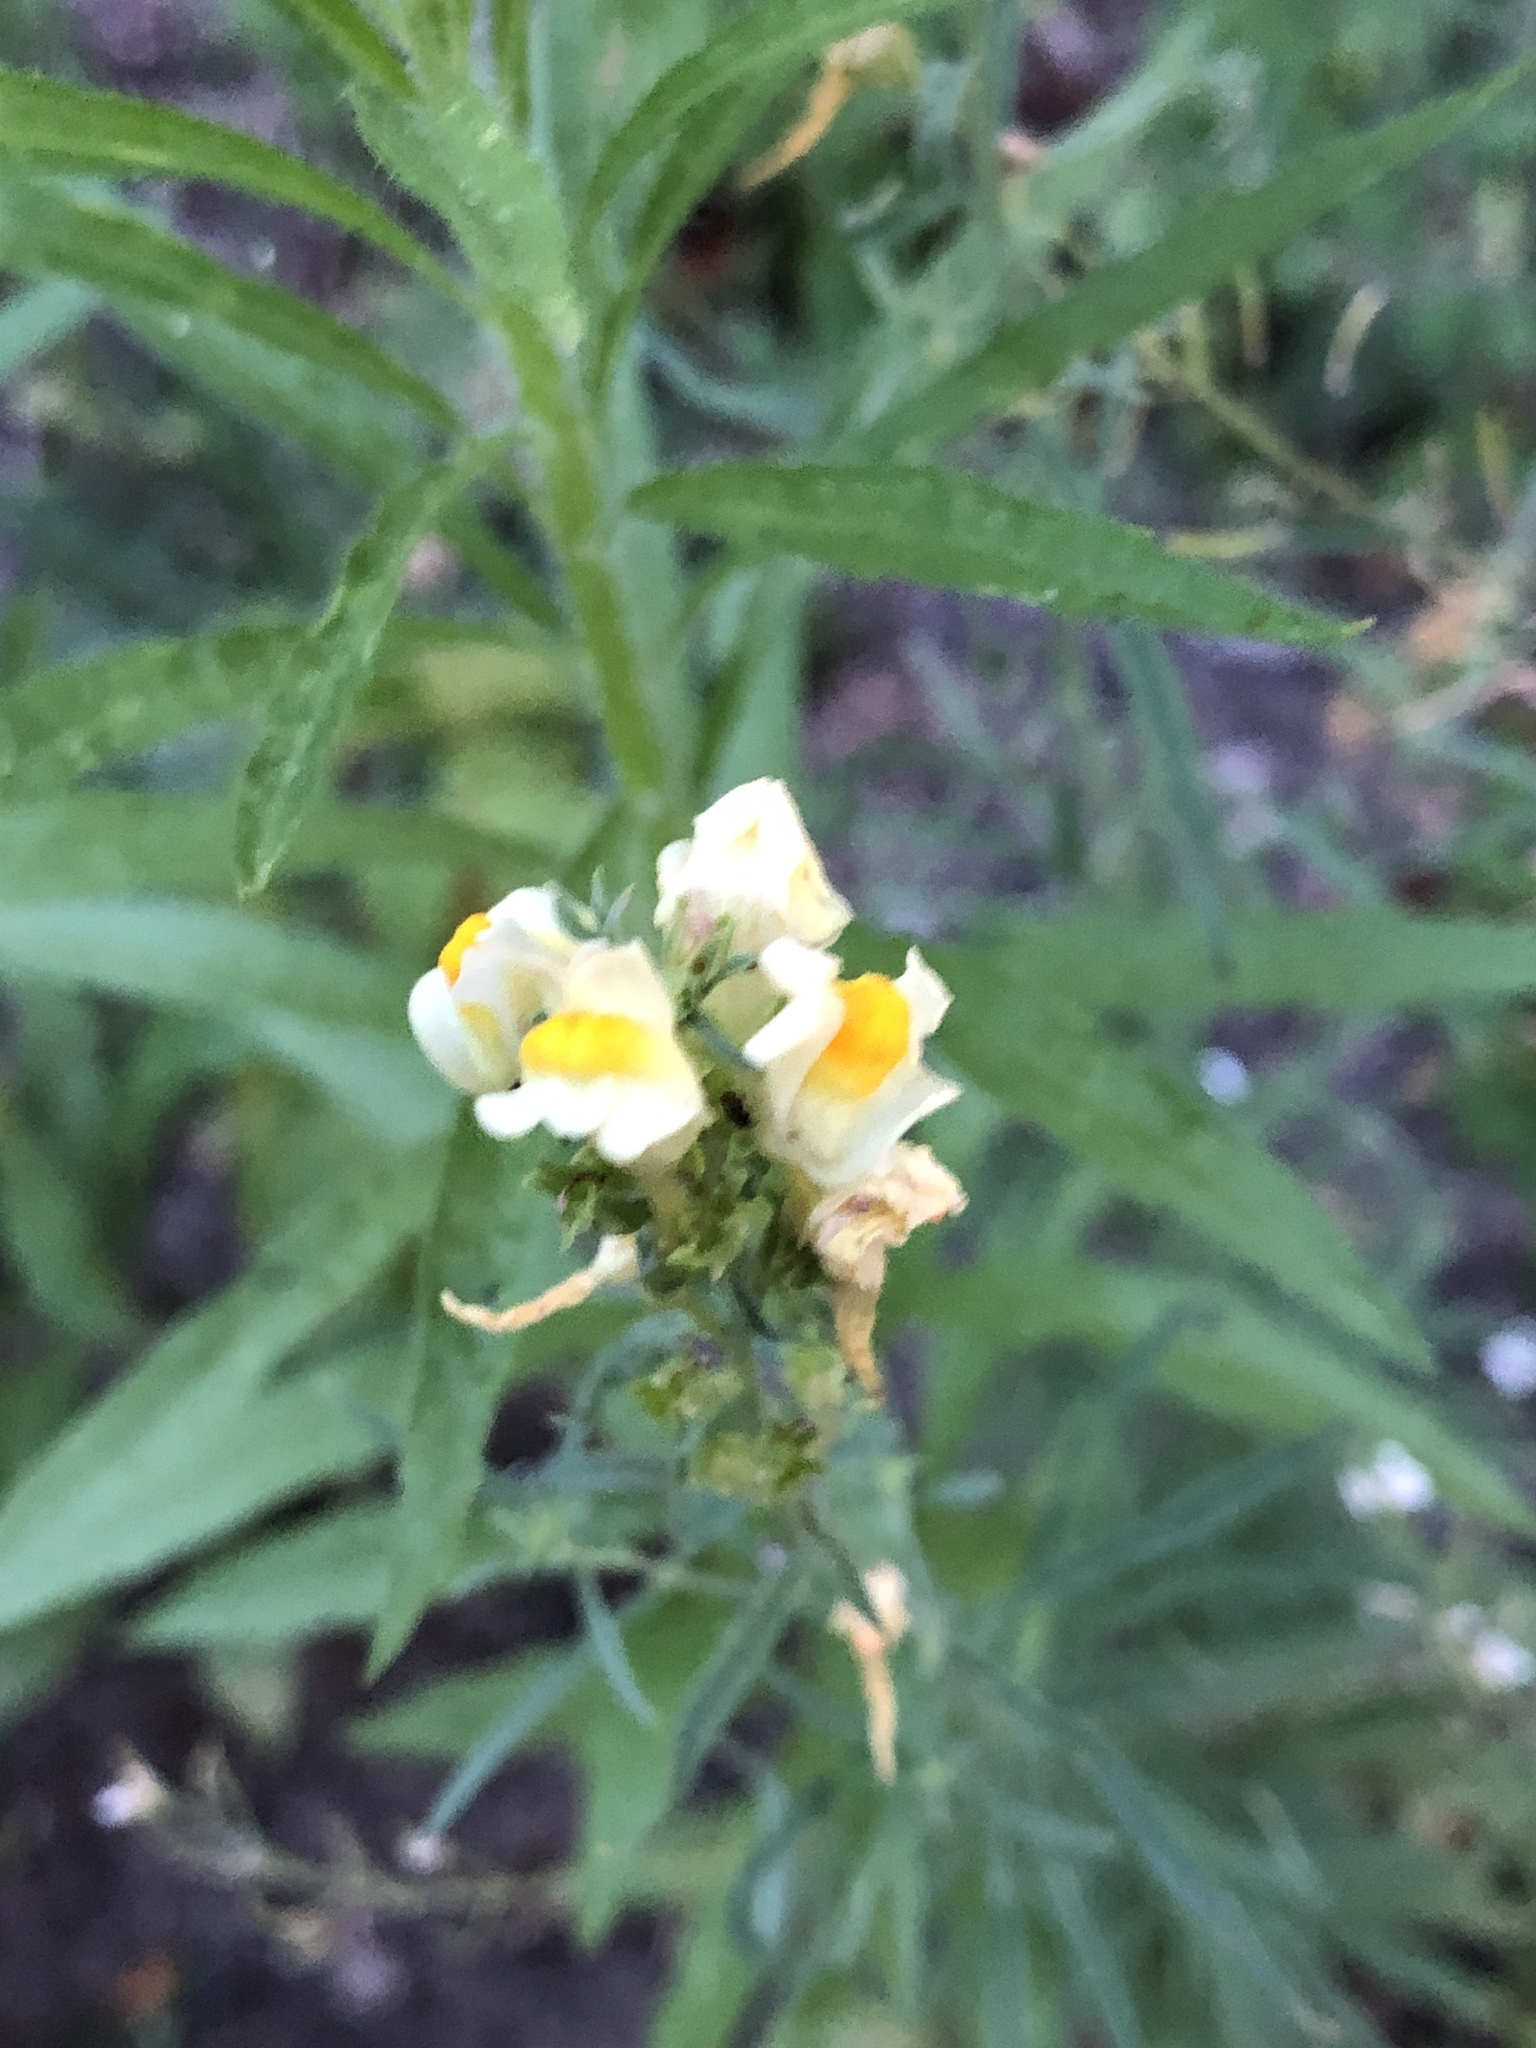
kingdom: Plantae
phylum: Tracheophyta
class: Magnoliopsida
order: Lamiales
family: Plantaginaceae
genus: Linaria
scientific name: Linaria vulgaris
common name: Butter and eggs
